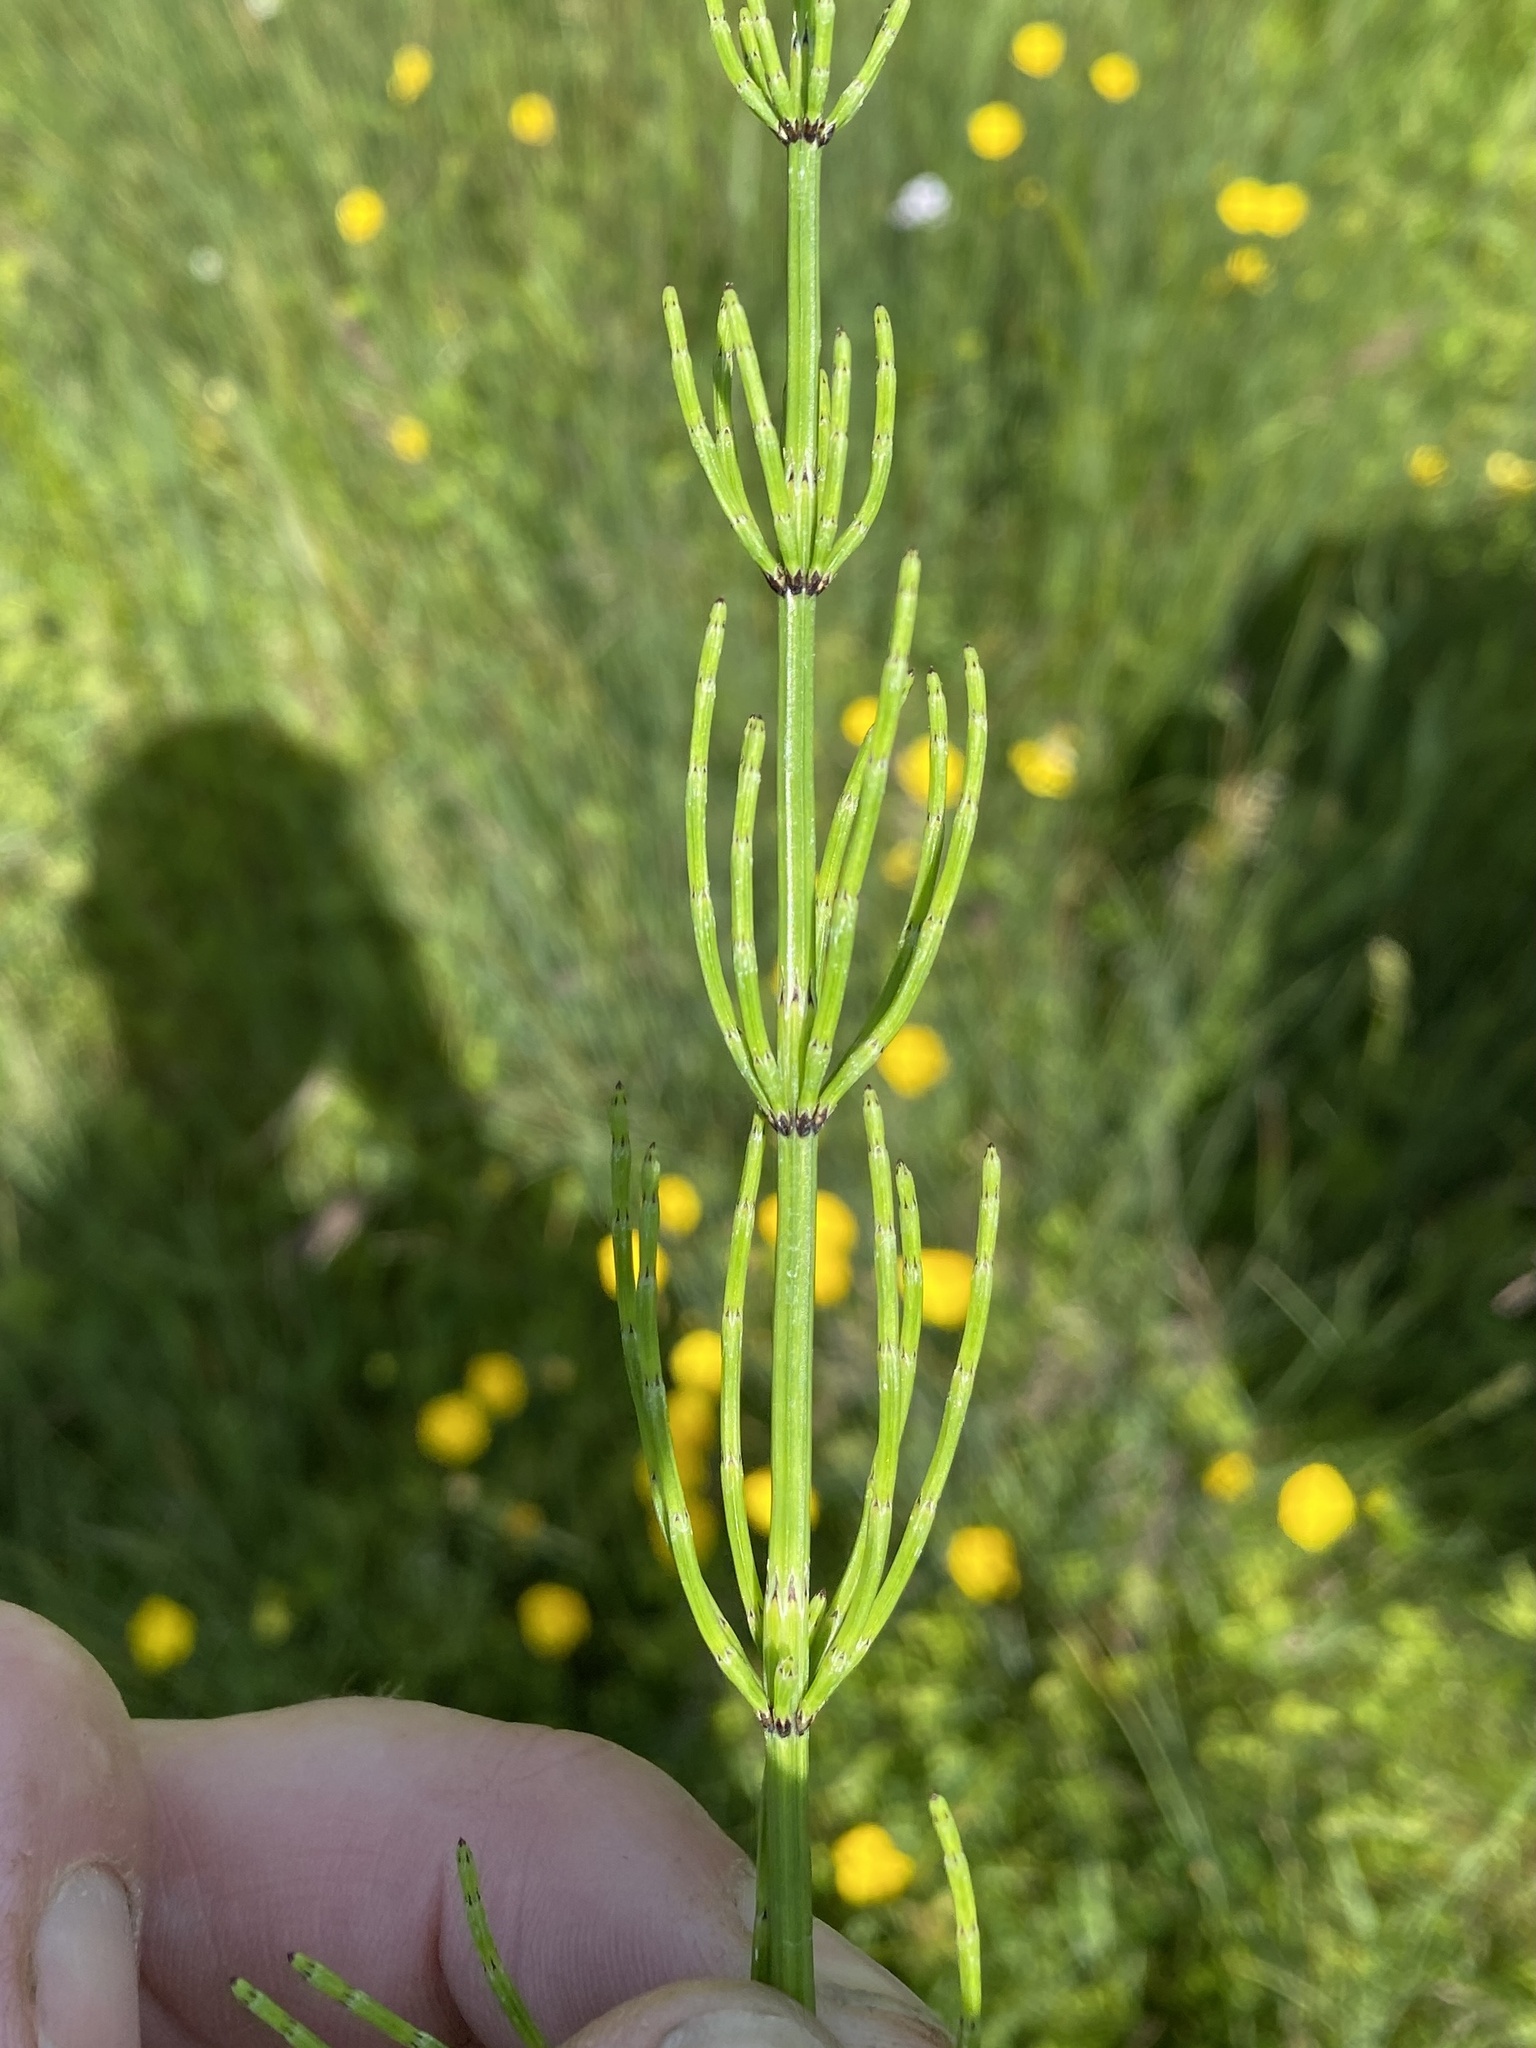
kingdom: Plantae
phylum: Tracheophyta
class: Polypodiopsida
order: Equisetales
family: Equisetaceae
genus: Equisetum
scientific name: Equisetum palustre
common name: Marsh horsetail
